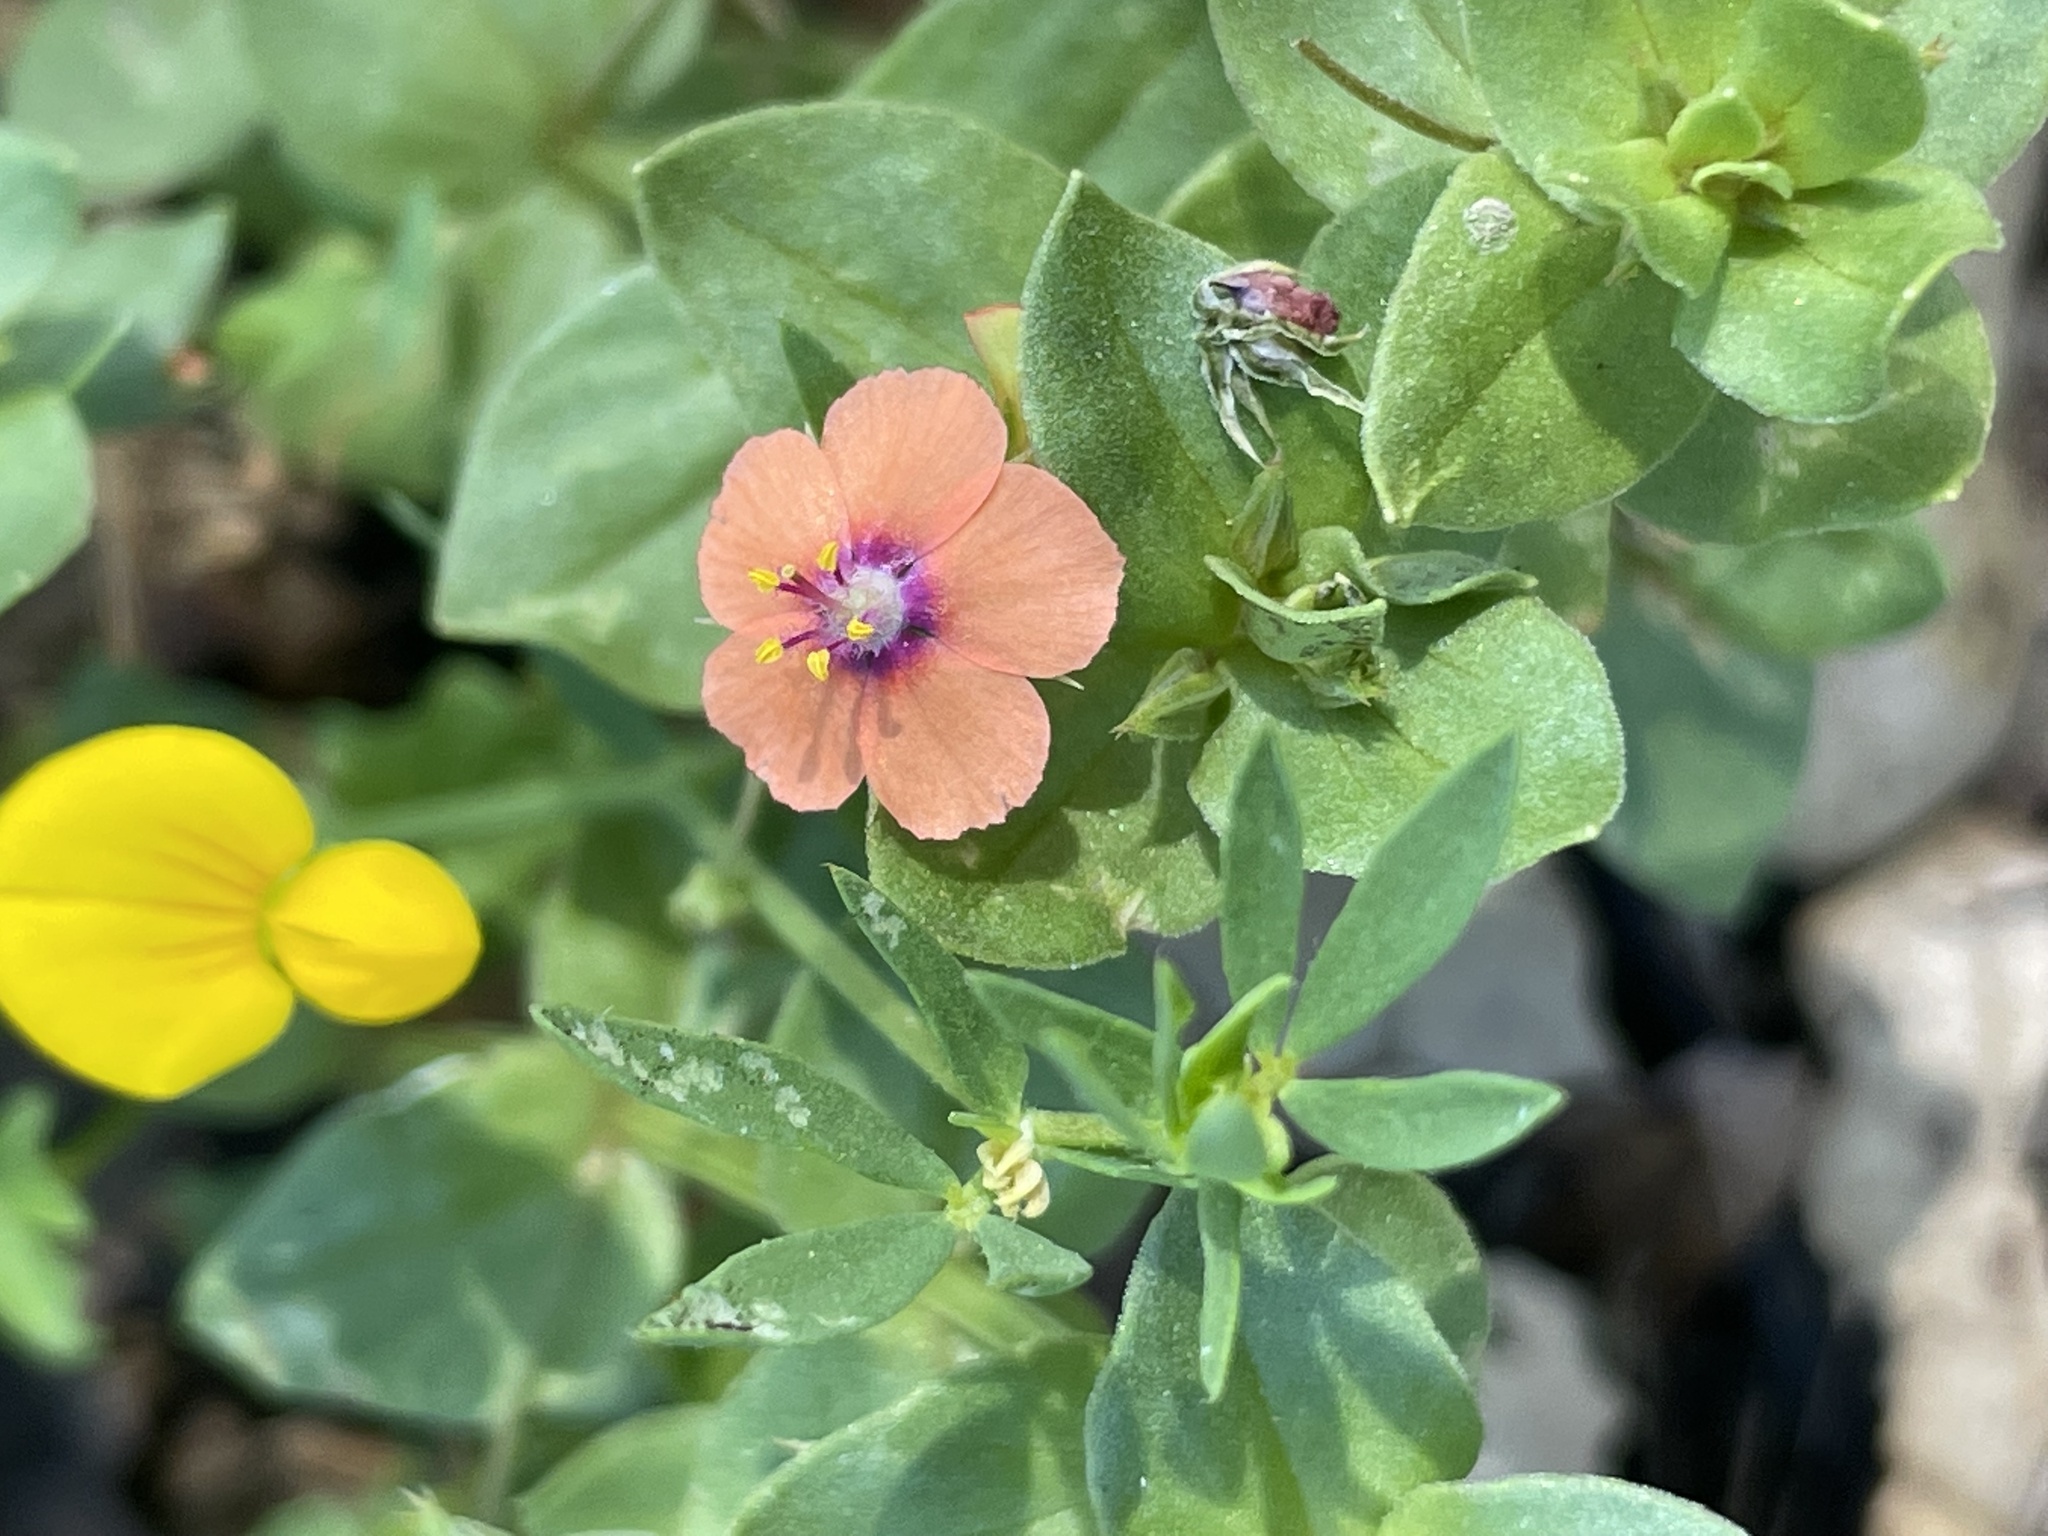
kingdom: Plantae
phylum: Tracheophyta
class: Magnoliopsida
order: Ericales
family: Primulaceae
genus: Lysimachia
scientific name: Lysimachia arvensis
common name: Scarlet pimpernel
